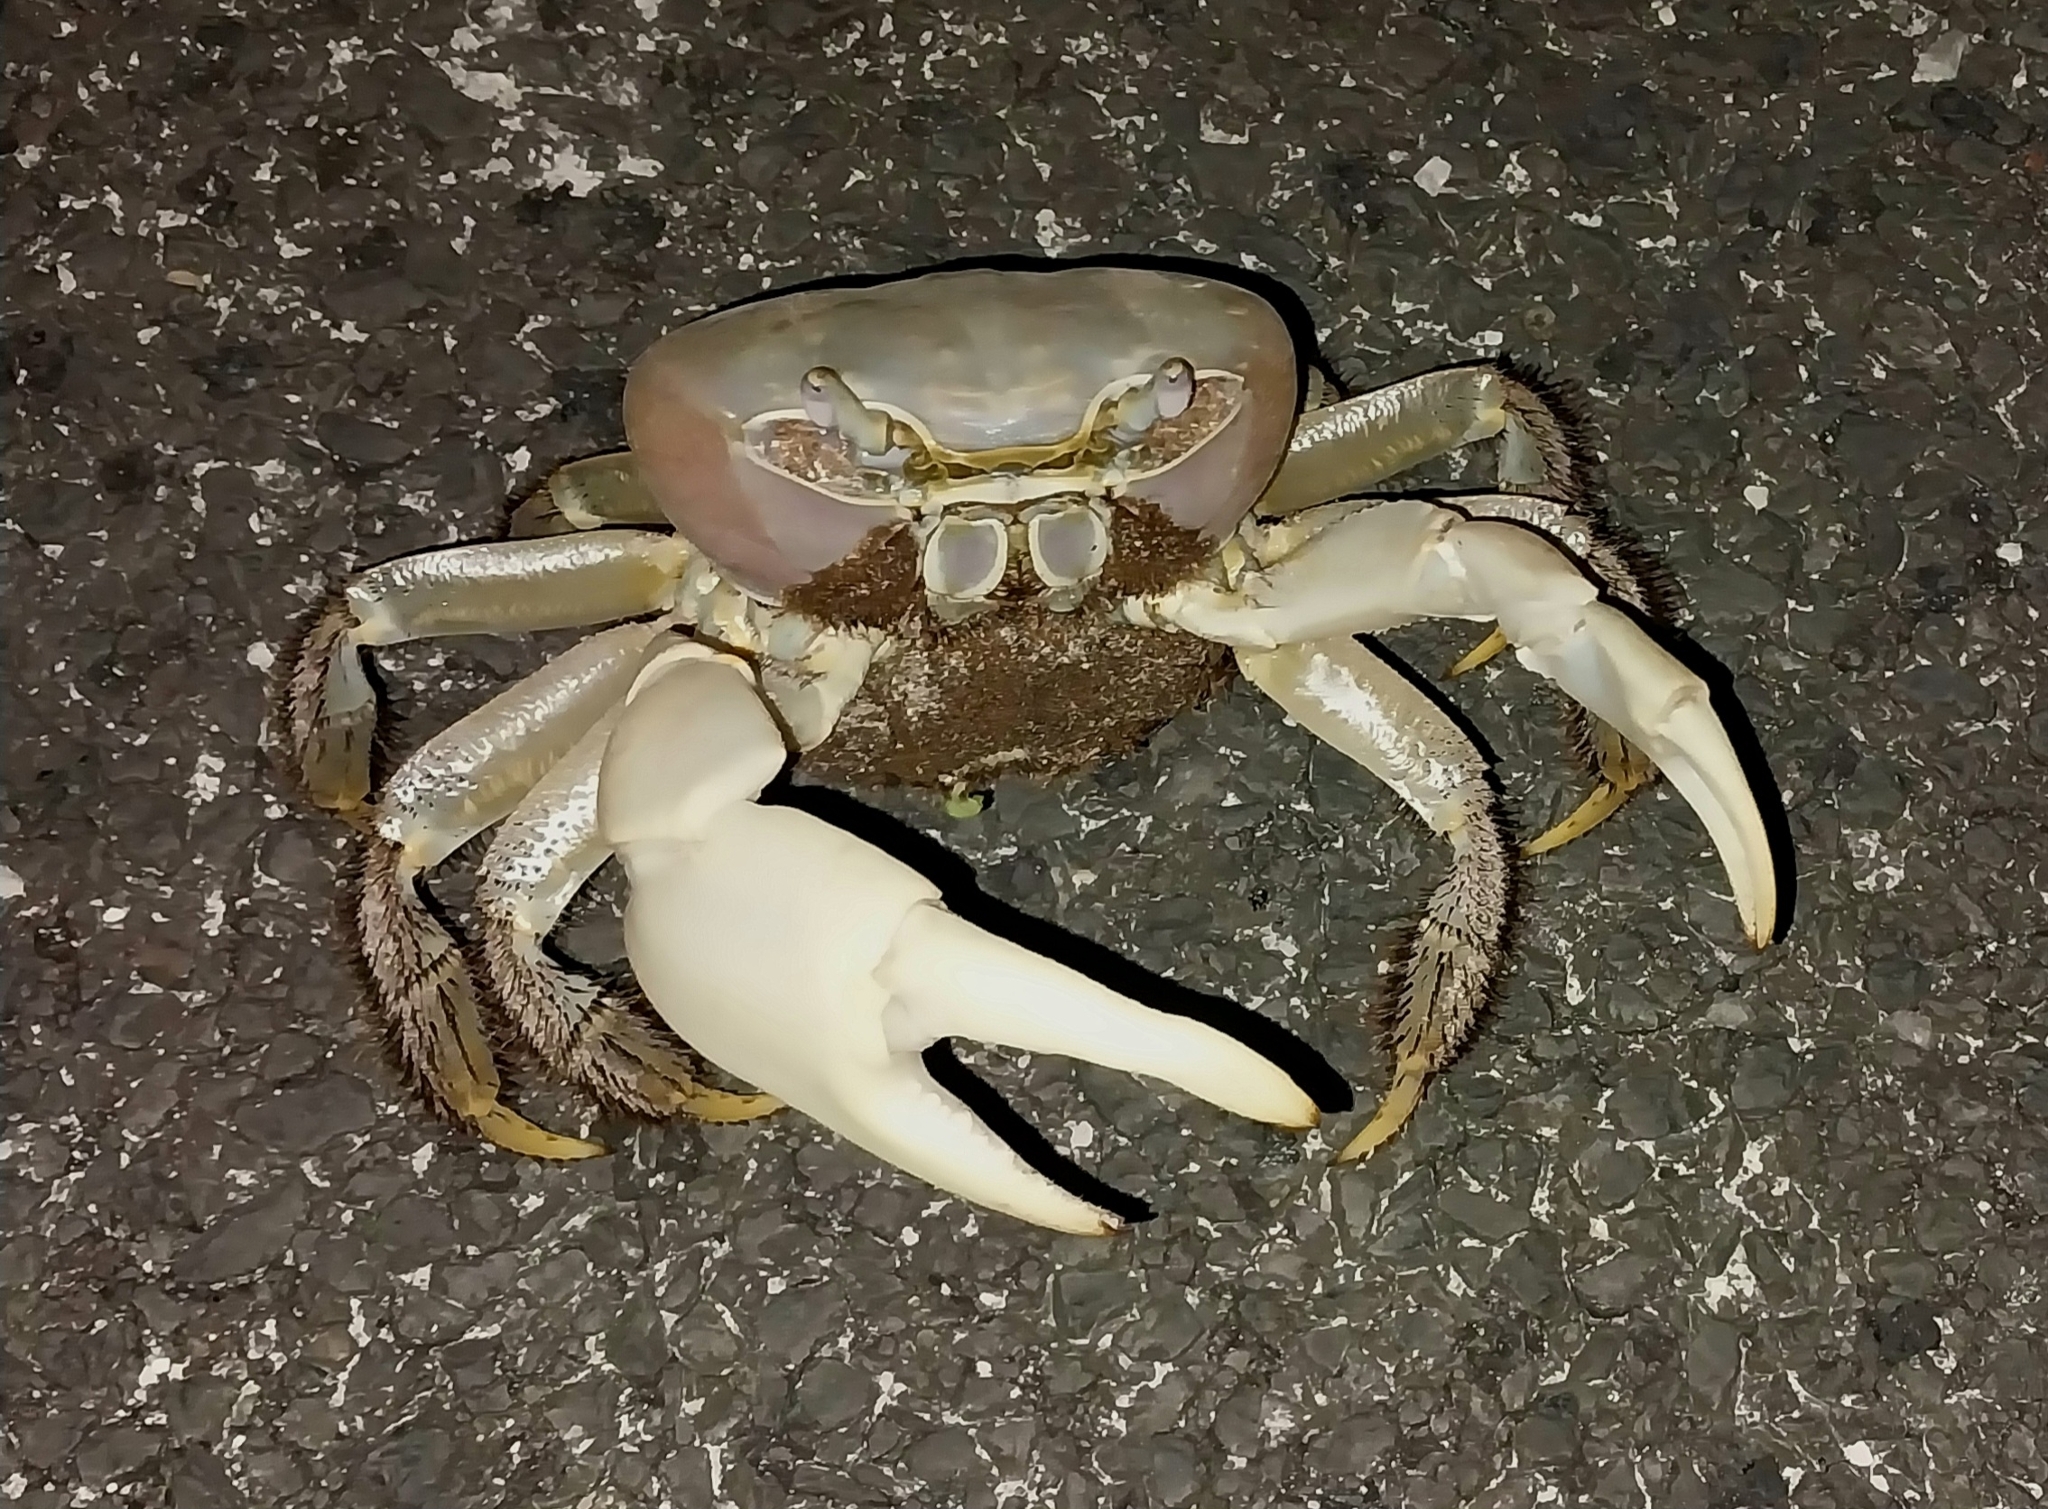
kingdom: Animalia
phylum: Arthropoda
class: Malacostraca
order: Decapoda
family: Gecarcinidae
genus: Cardisoma
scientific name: Cardisoma carnifex
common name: Brown land crab
